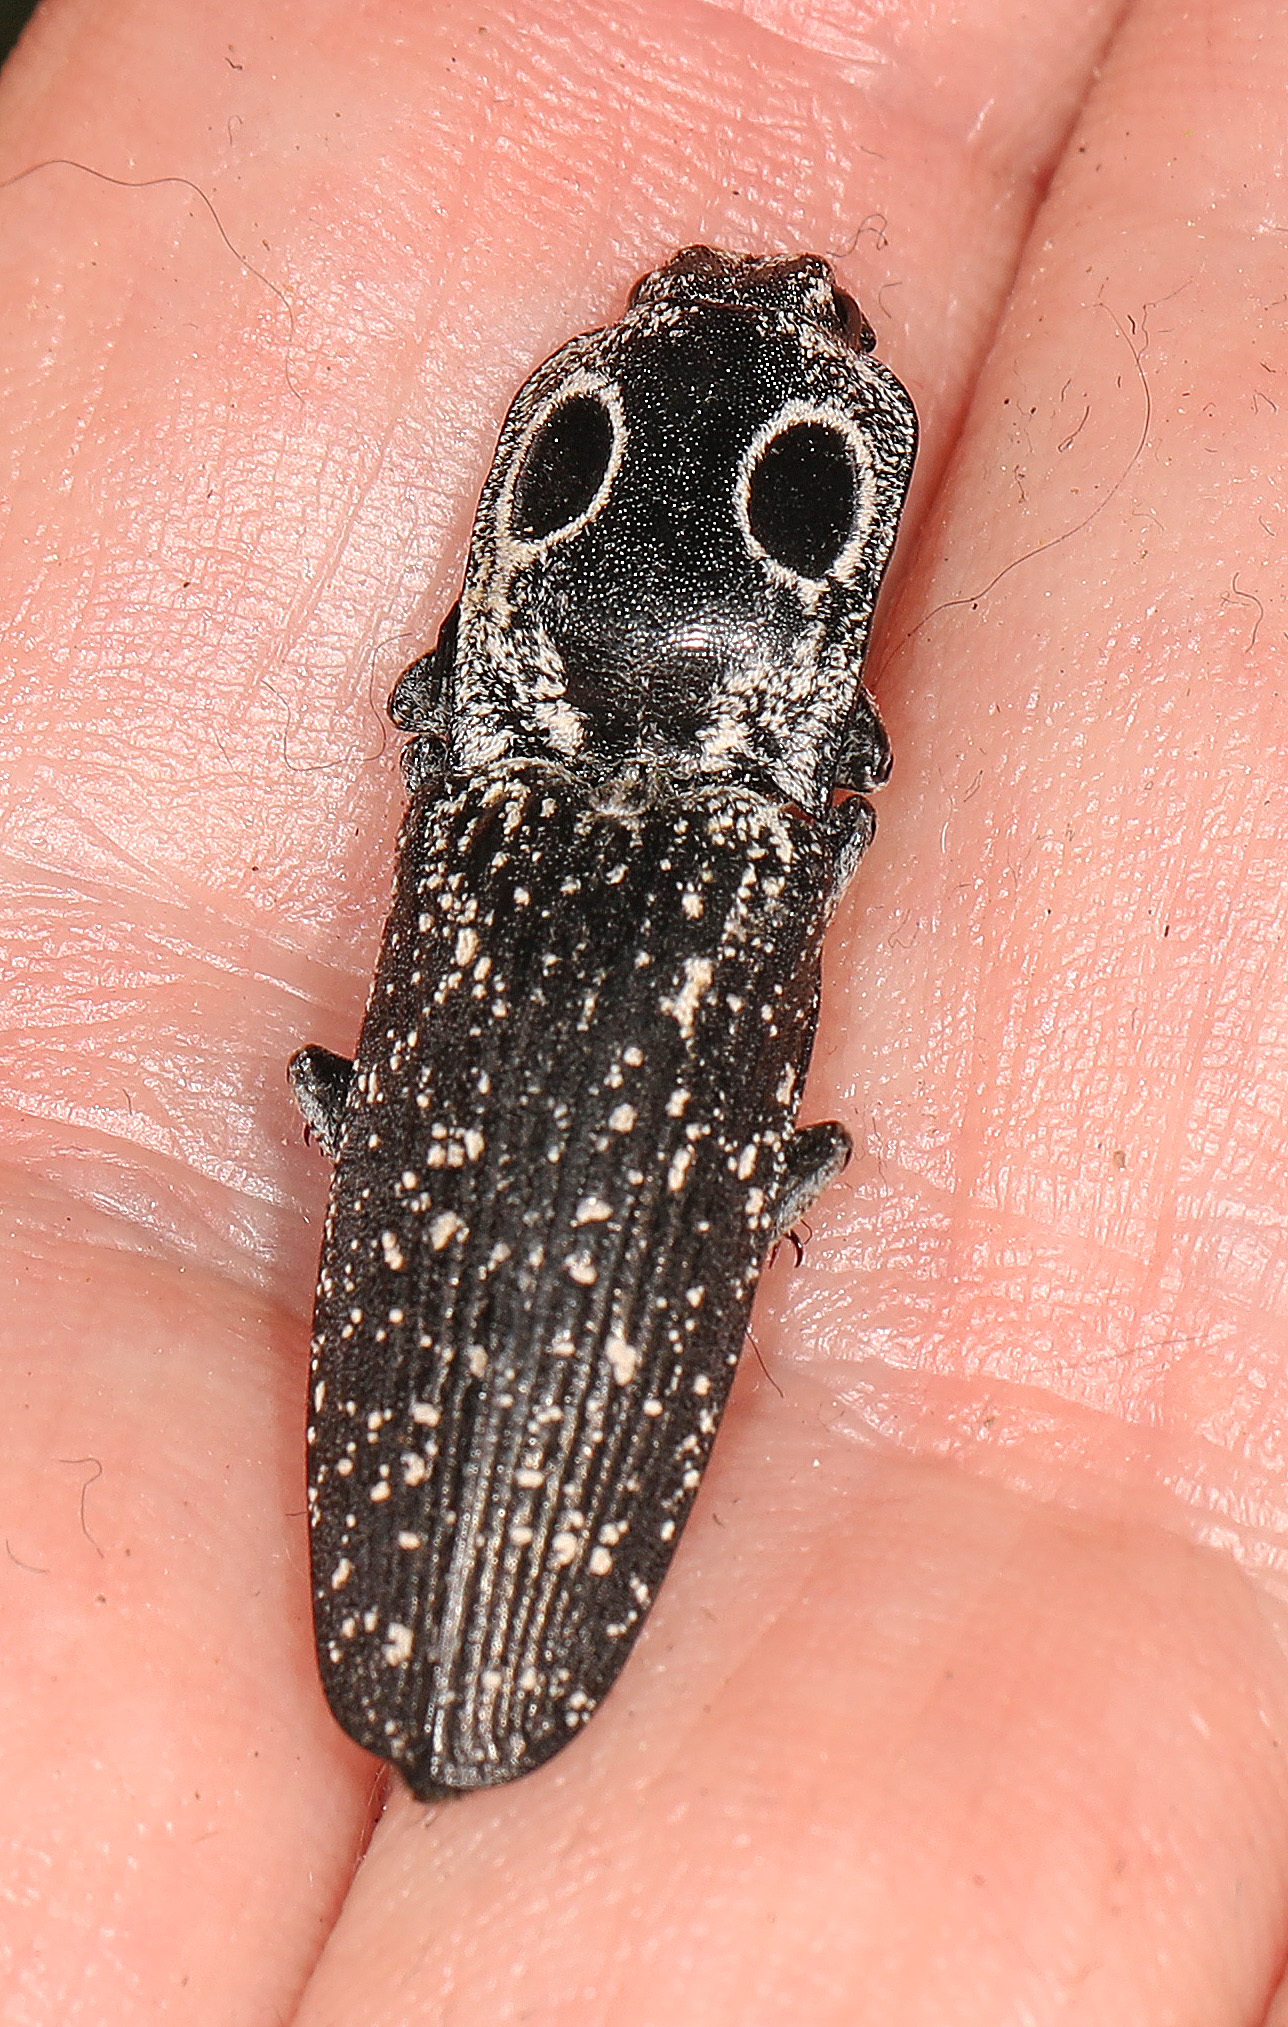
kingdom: Animalia
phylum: Arthropoda
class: Insecta
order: Coleoptera
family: Elateridae
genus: Alaus
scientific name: Alaus oculatus
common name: Eastern eyed click beetle
